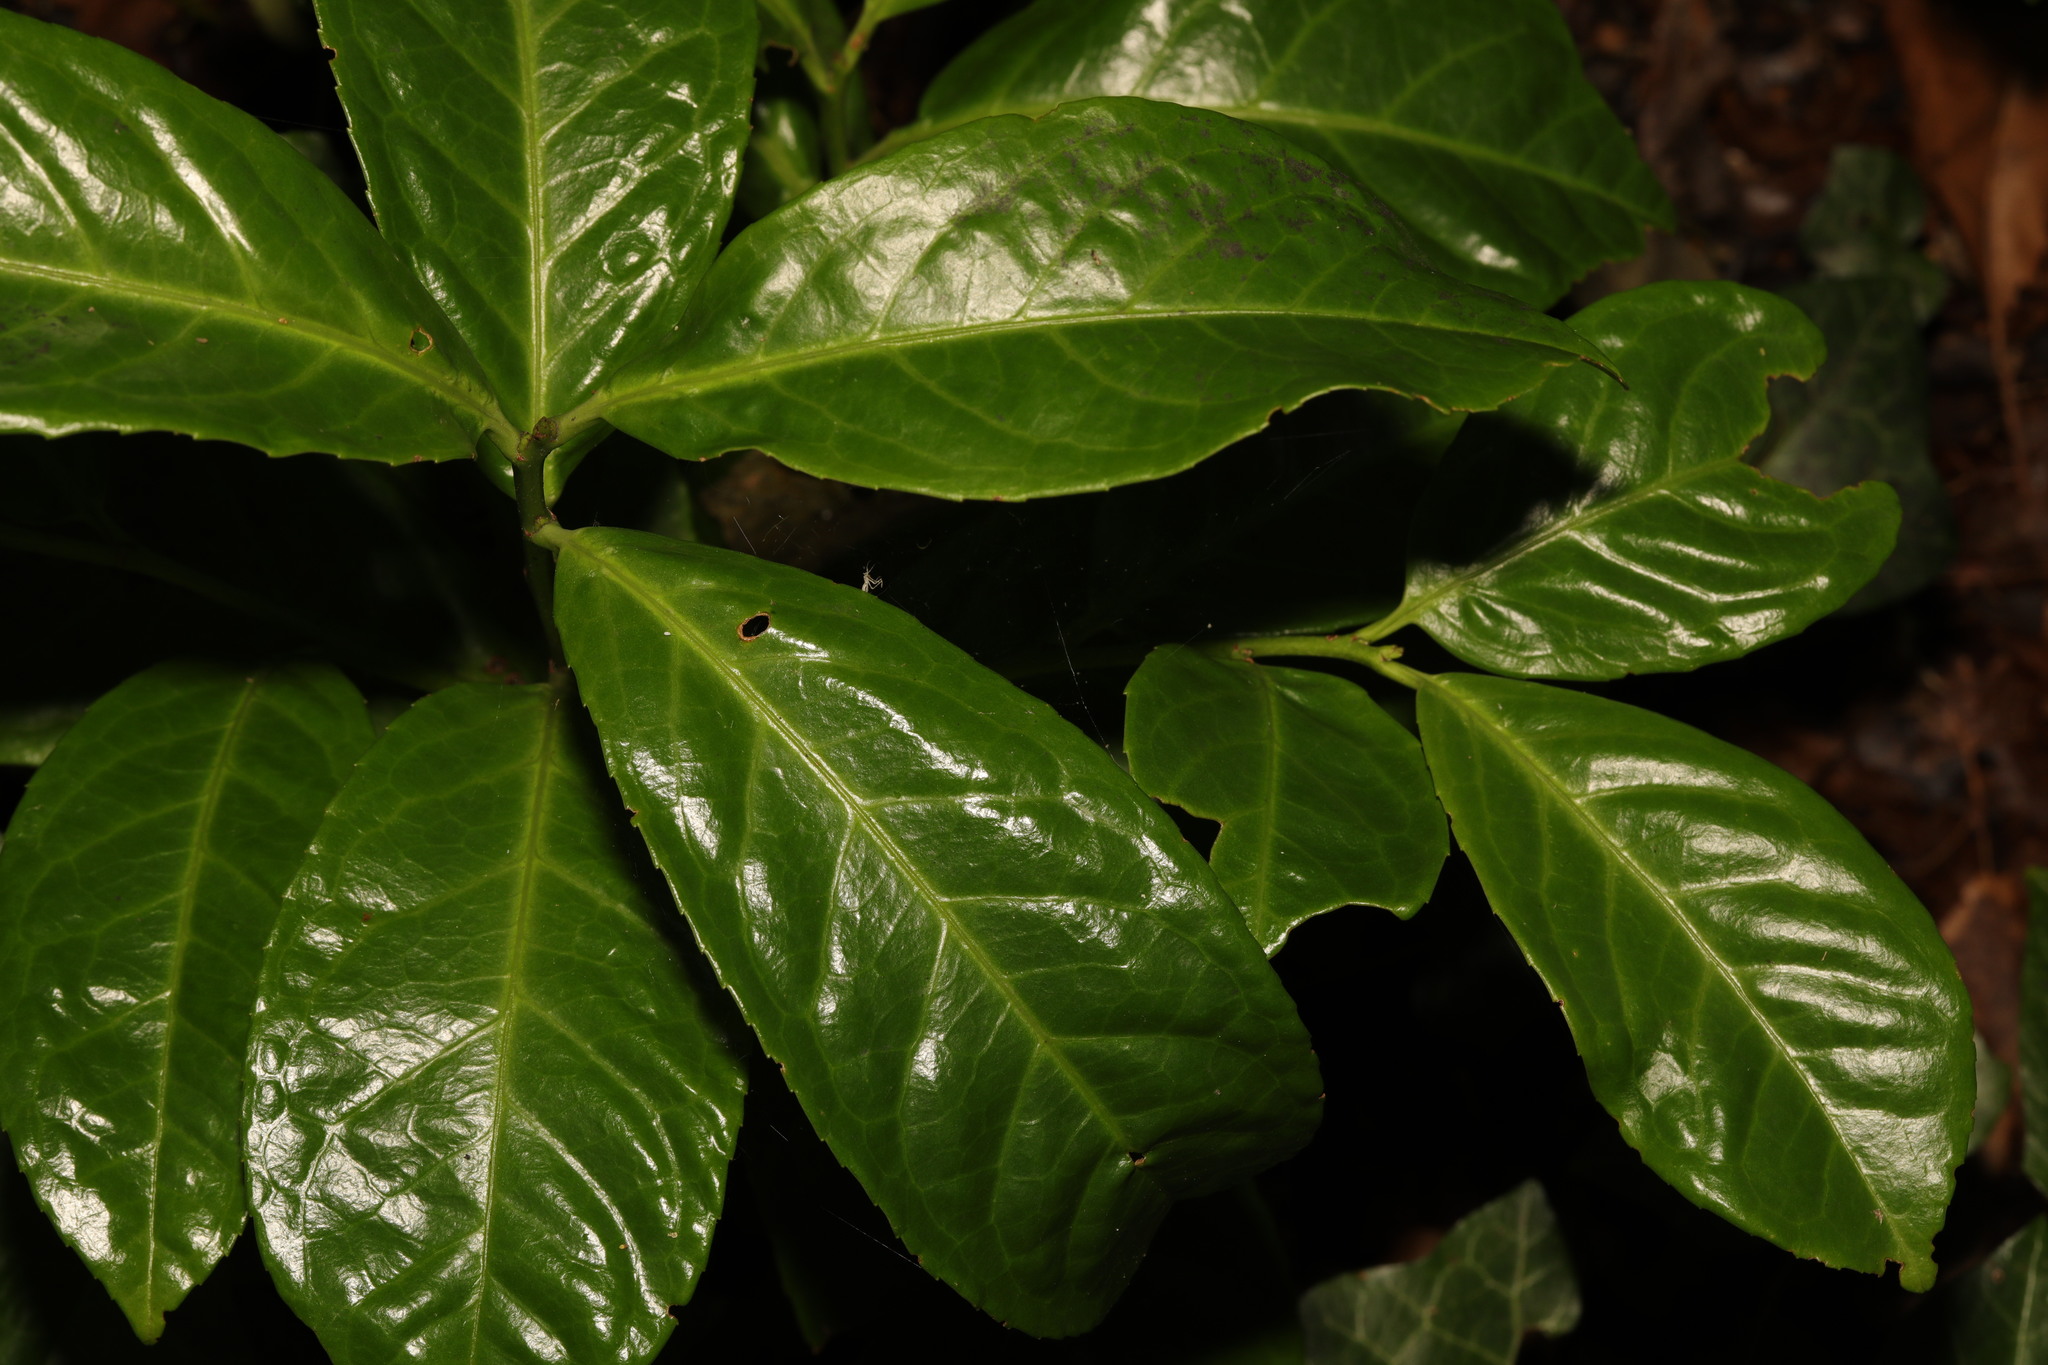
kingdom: Plantae
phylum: Tracheophyta
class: Magnoliopsida
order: Rosales
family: Rosaceae
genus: Prunus
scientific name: Prunus laurocerasus
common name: Cherry laurel
